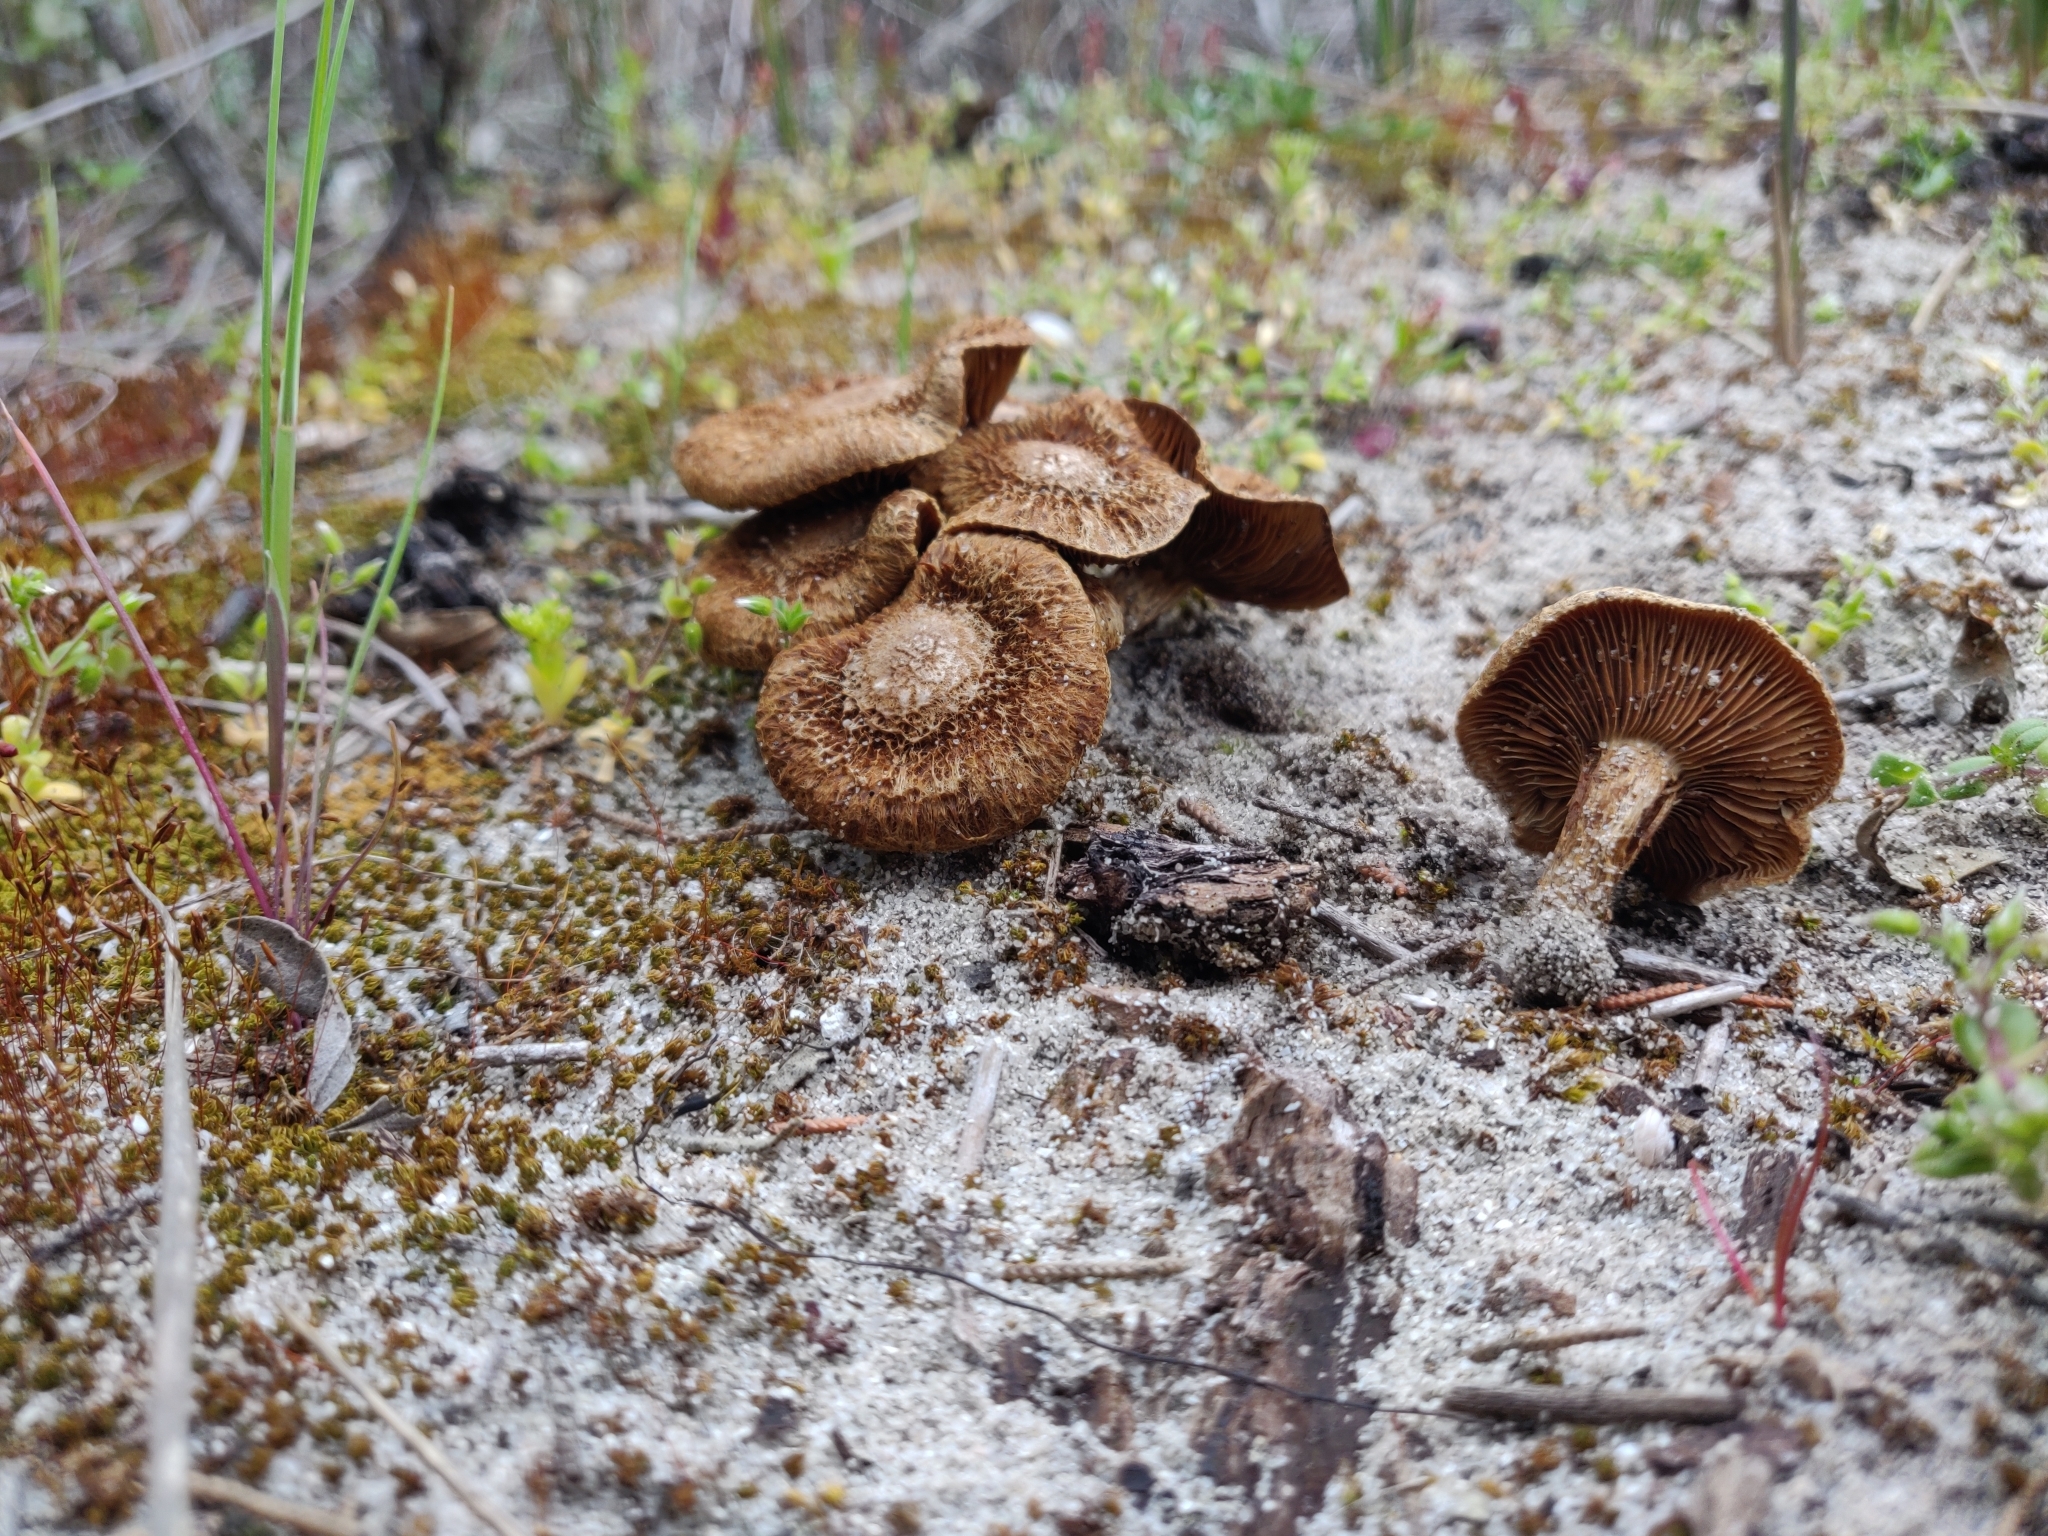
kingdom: Fungi
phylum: Basidiomycota
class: Agaricomycetes
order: Agaricales
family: Inocybaceae
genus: Mallocybe
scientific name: Mallocybe heimii
